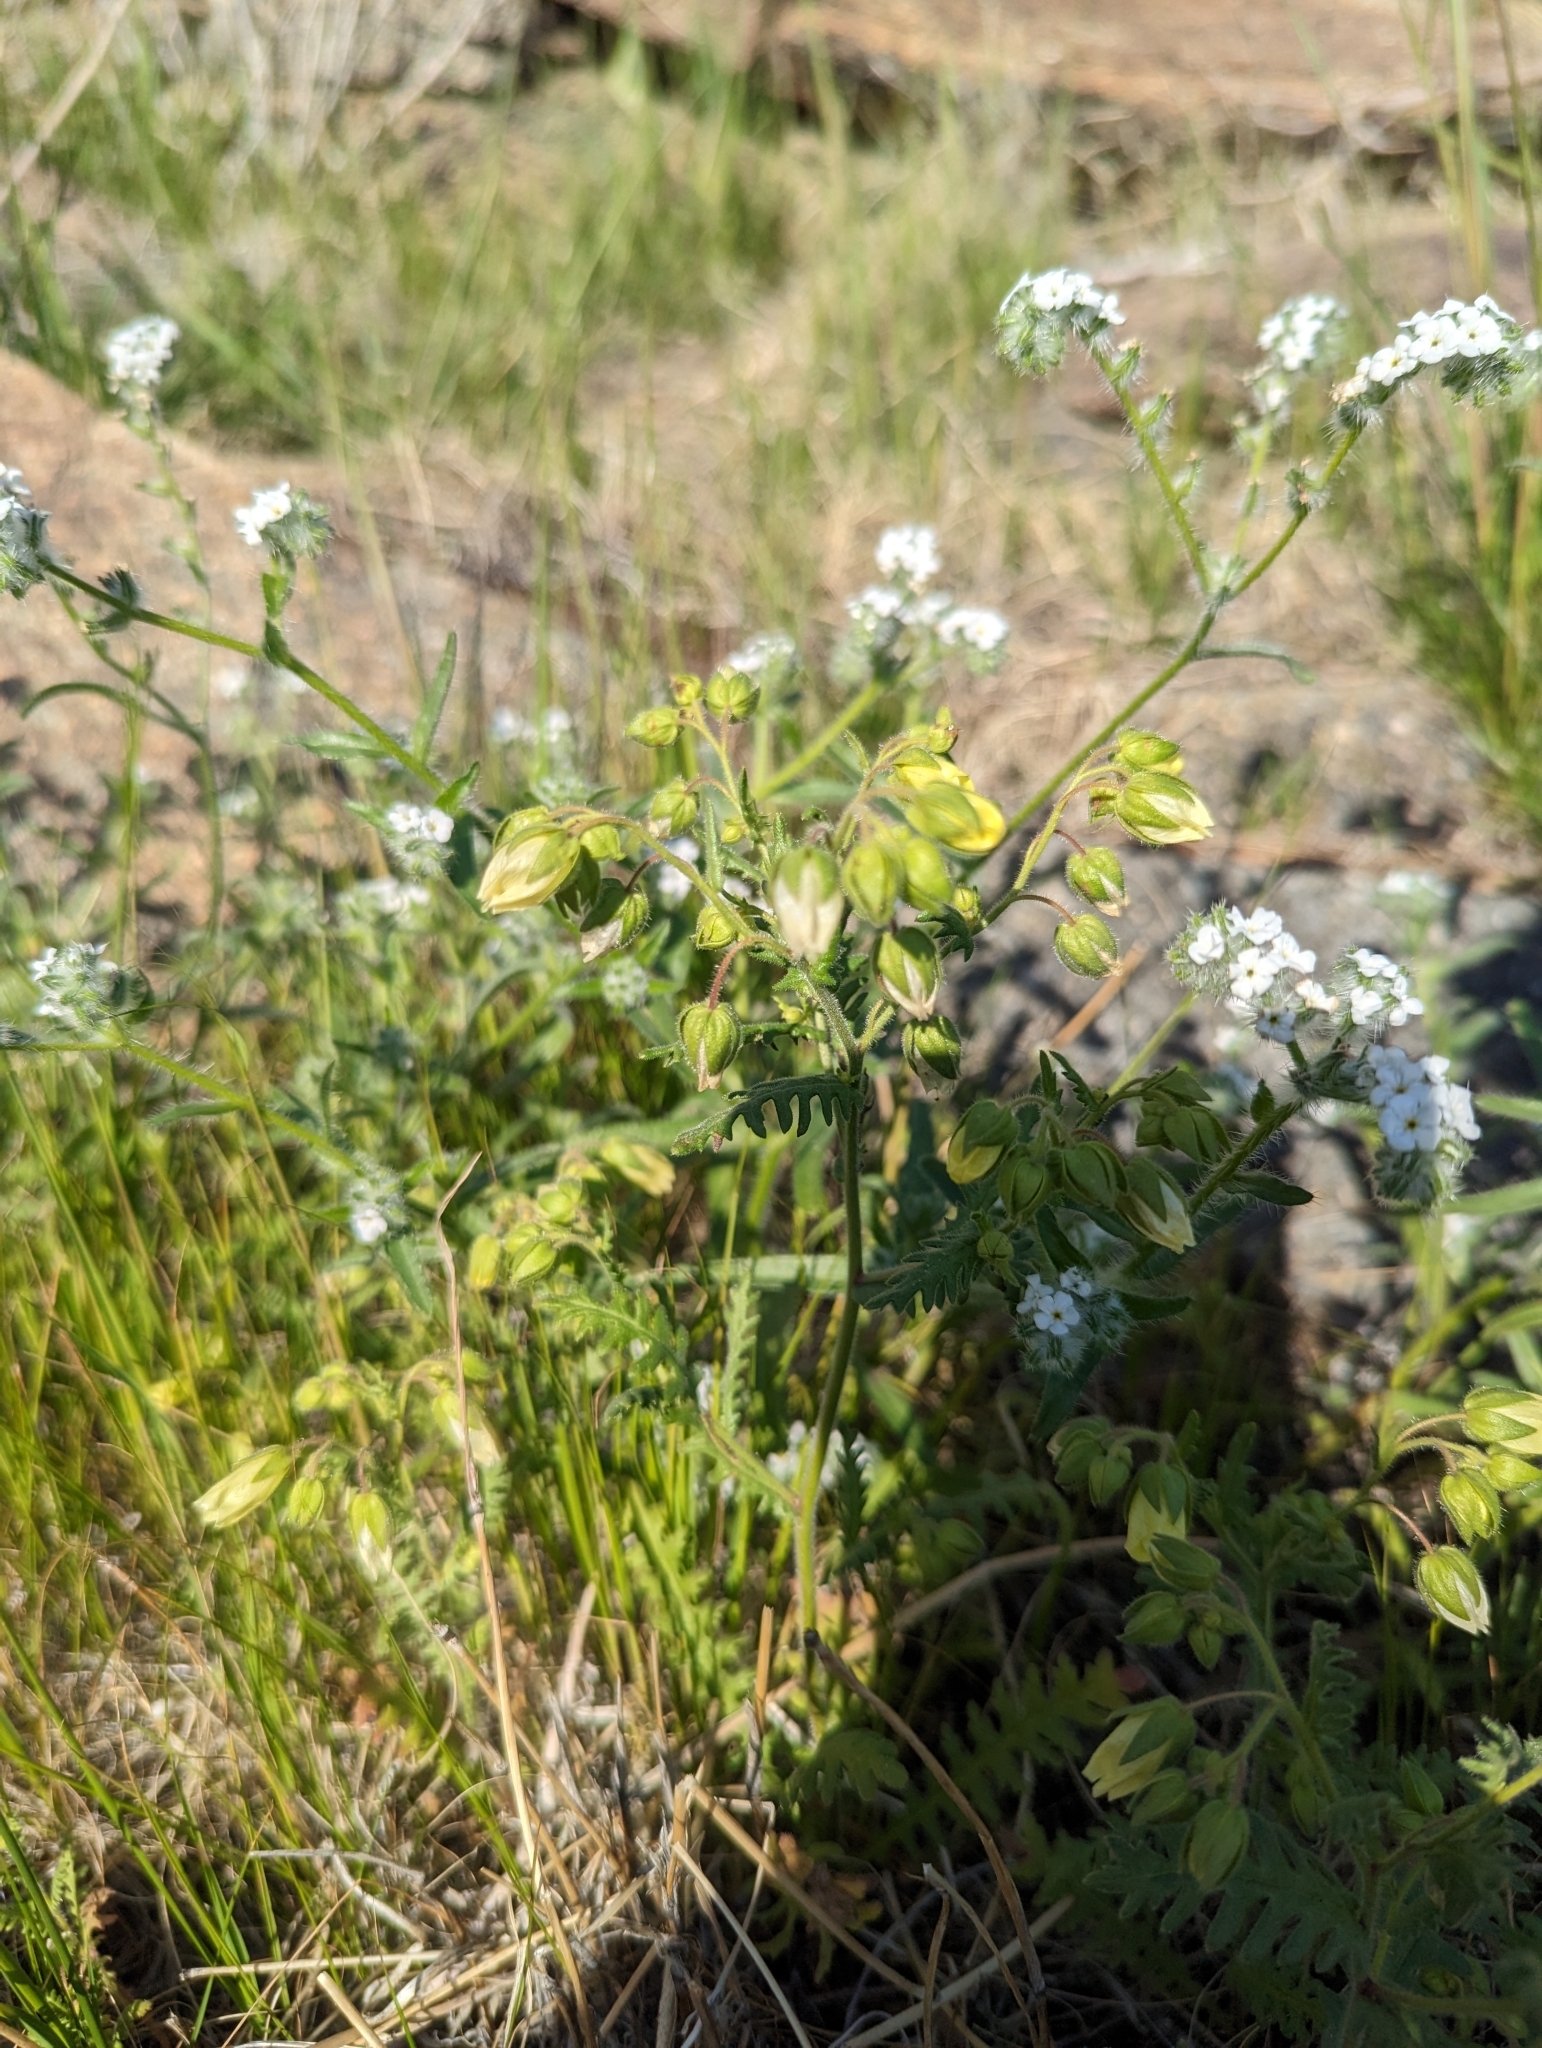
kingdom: Plantae
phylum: Tracheophyta
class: Magnoliopsida
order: Boraginales
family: Hydrophyllaceae
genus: Emmenanthe
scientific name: Emmenanthe penduliflora
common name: Whispering-bells
